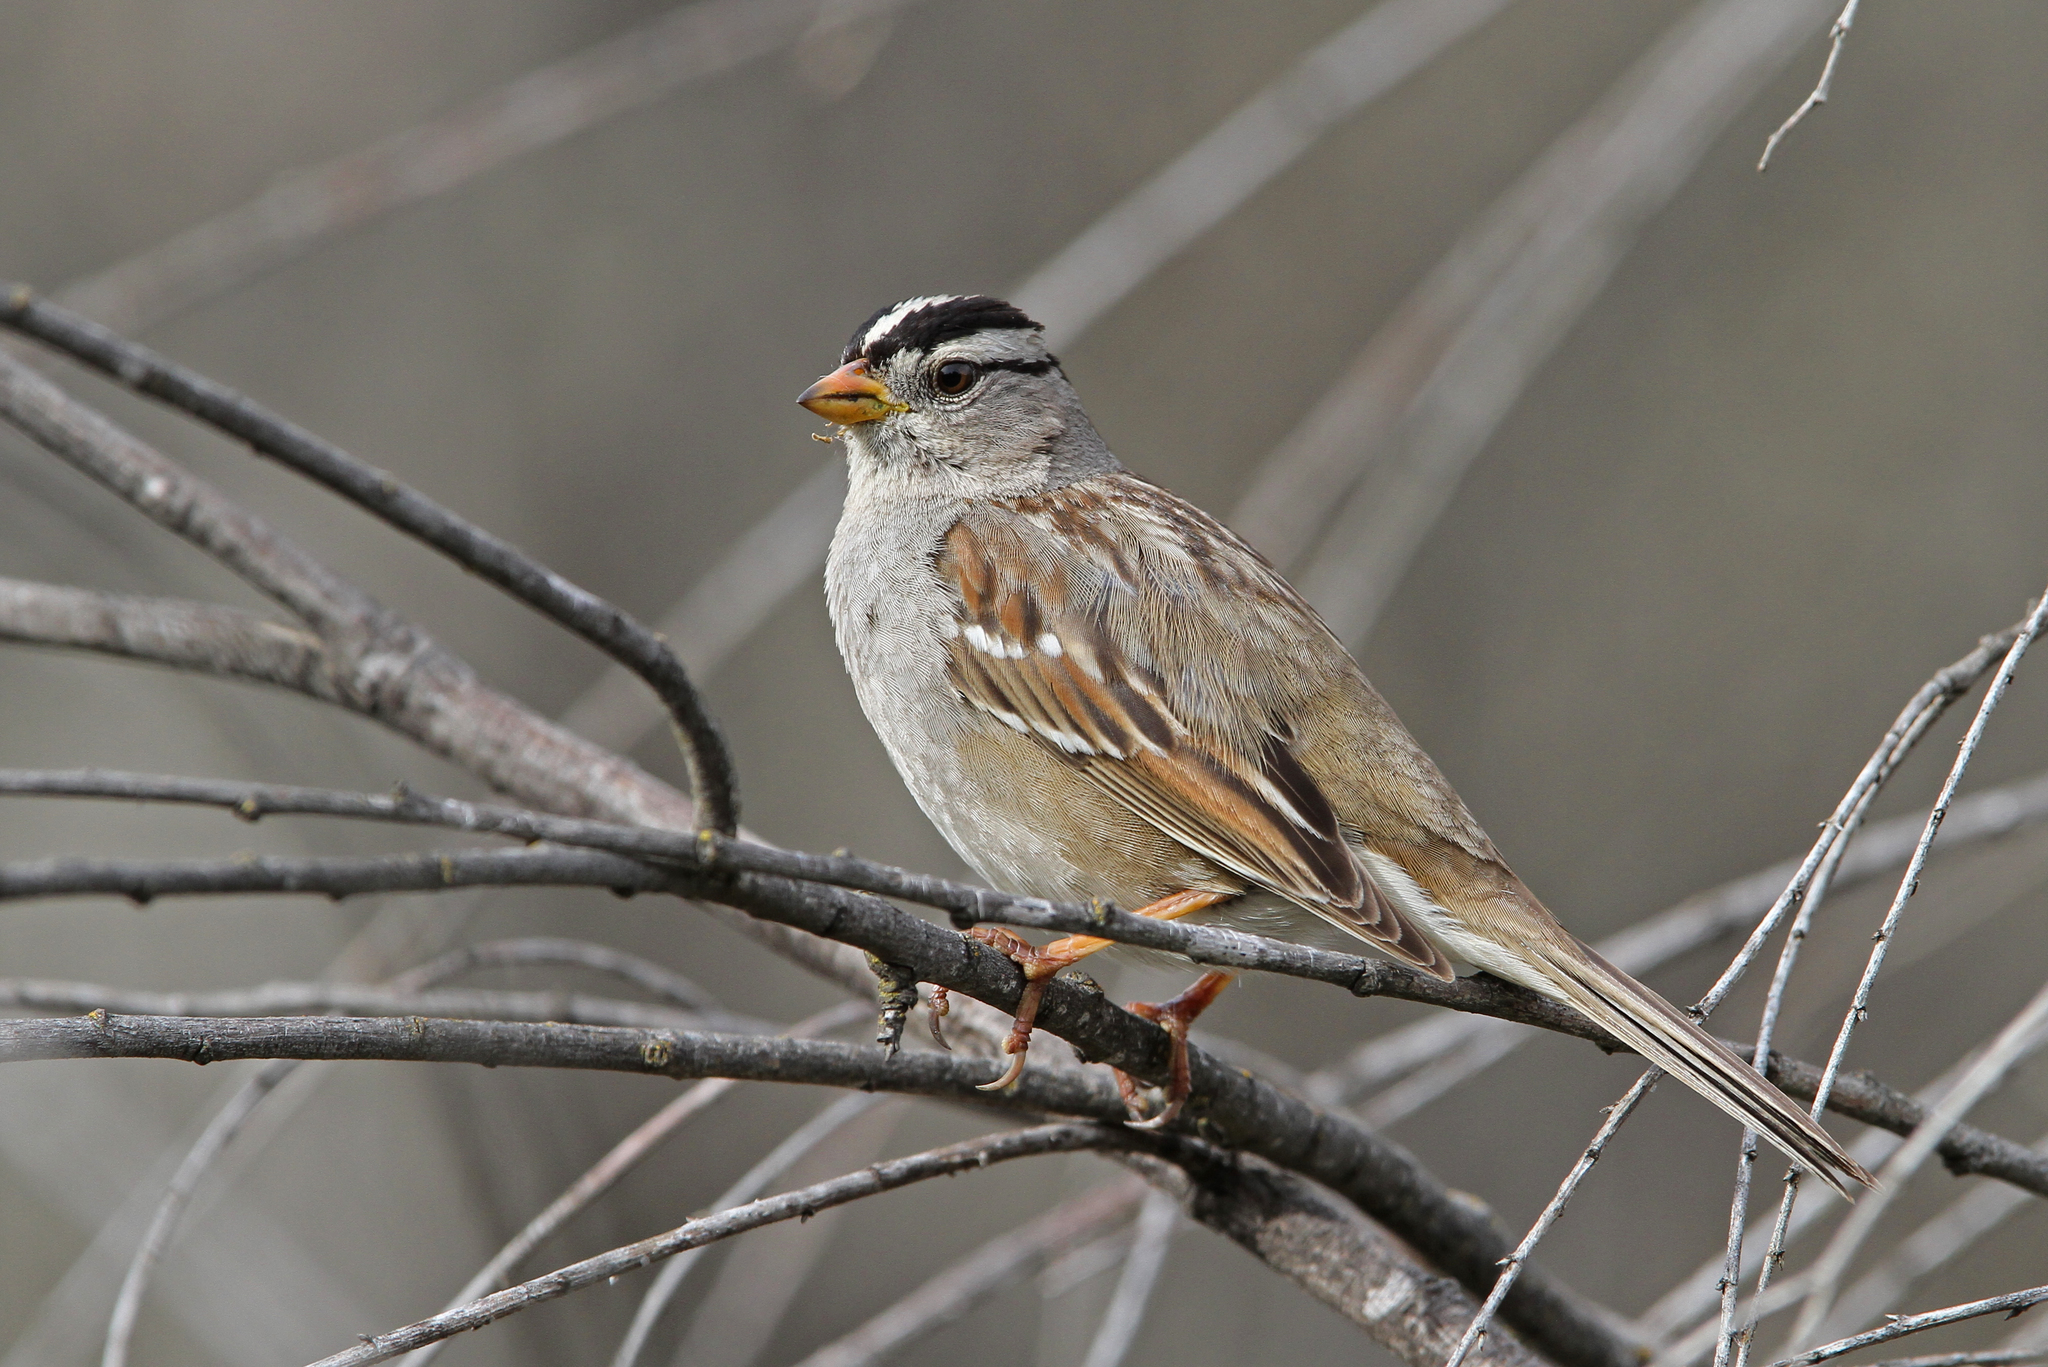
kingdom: Animalia
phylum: Chordata
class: Aves
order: Passeriformes
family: Passerellidae
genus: Zonotrichia
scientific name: Zonotrichia leucophrys
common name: White-crowned sparrow
